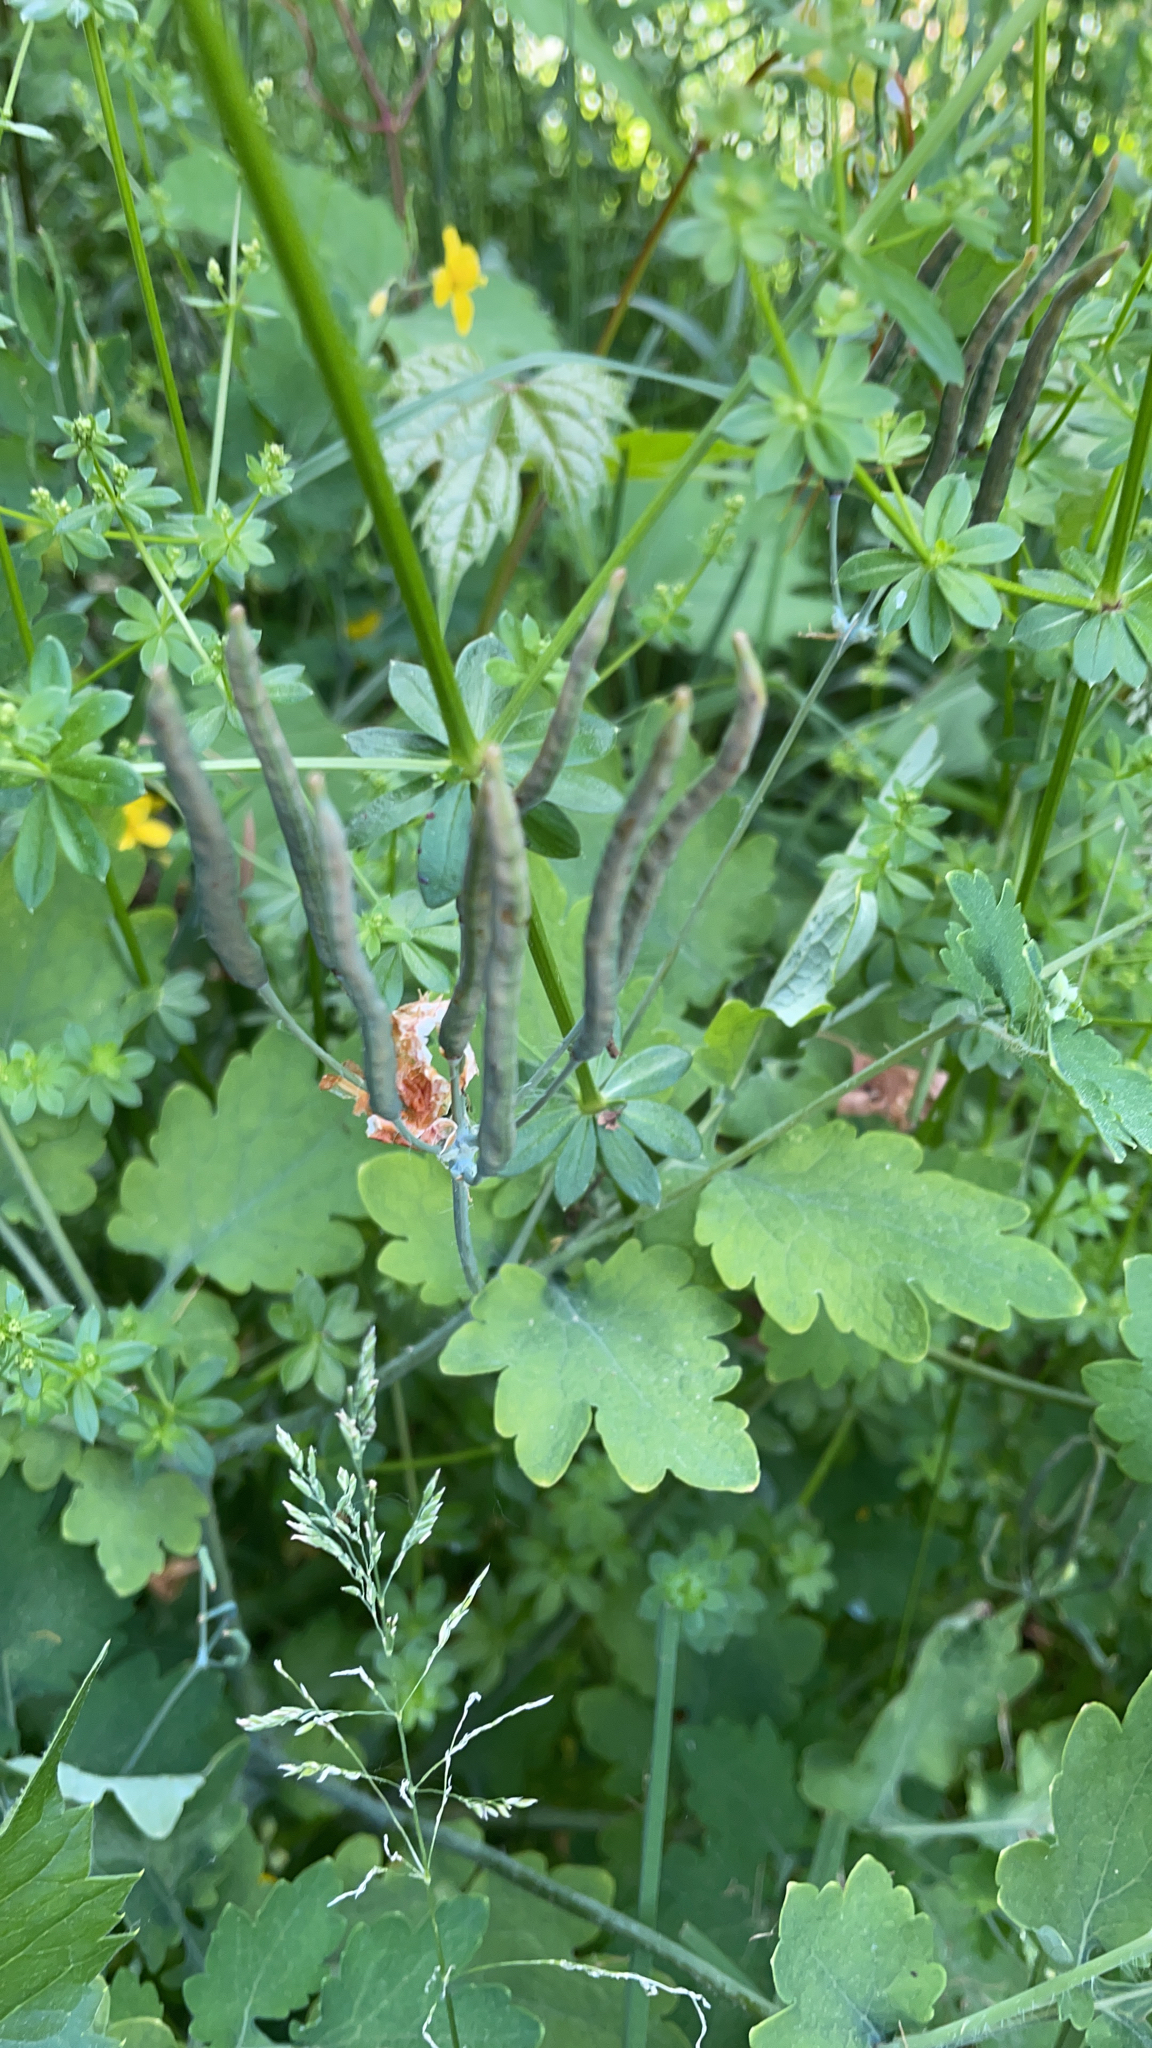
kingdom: Plantae
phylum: Tracheophyta
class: Magnoliopsida
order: Ranunculales
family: Papaveraceae
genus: Chelidonium
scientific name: Chelidonium majus
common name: Greater celandine
